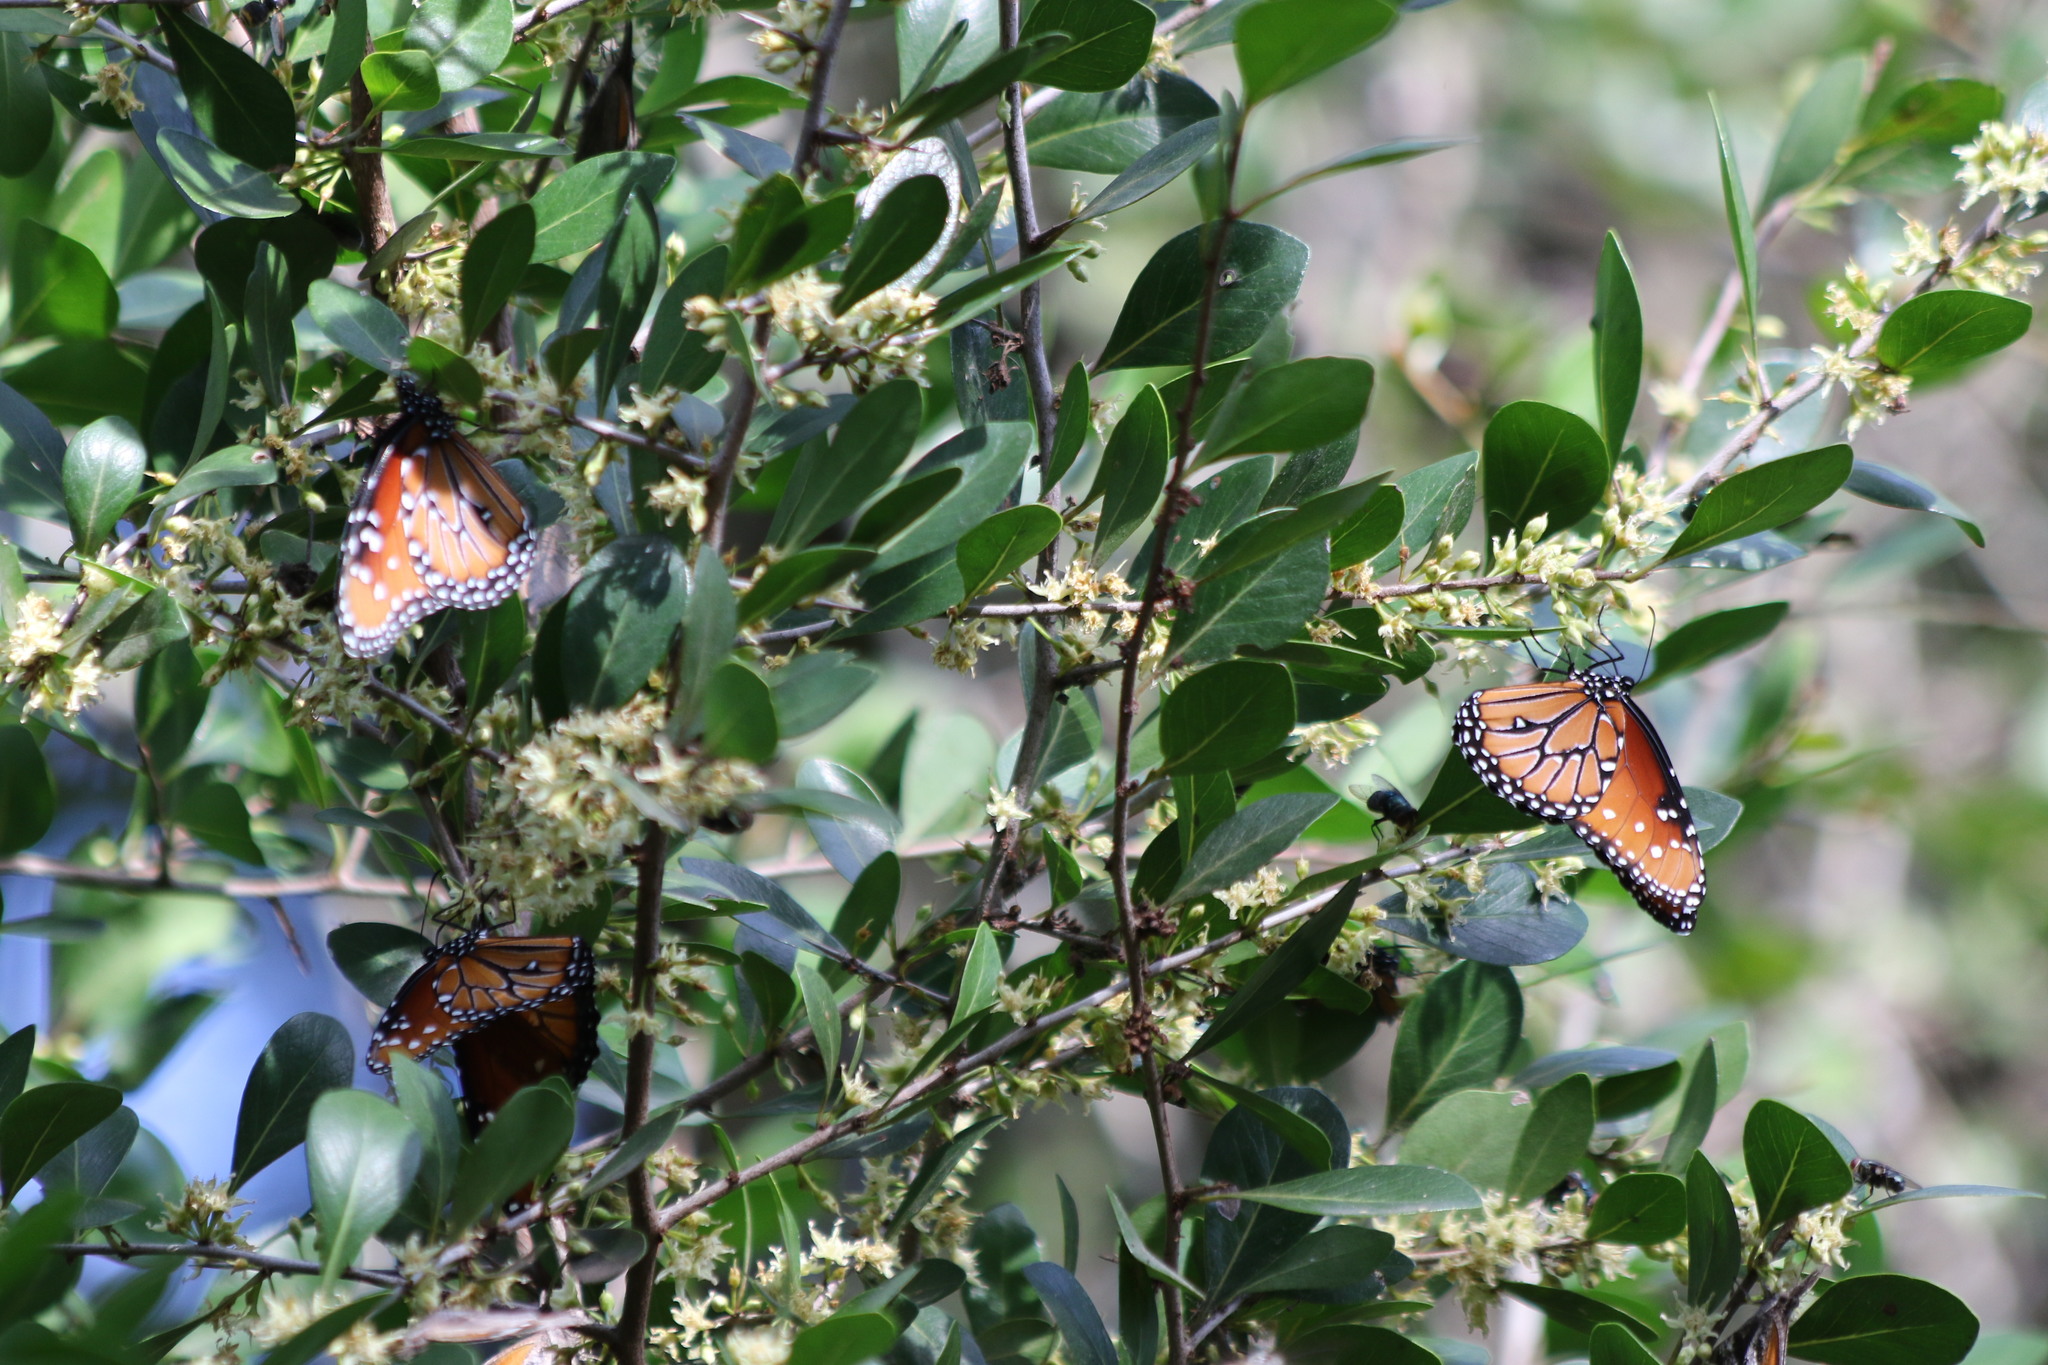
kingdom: Plantae
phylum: Tracheophyta
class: Magnoliopsida
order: Ericales
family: Sapotaceae
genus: Sideroxylon
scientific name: Sideroxylon celastrinum
